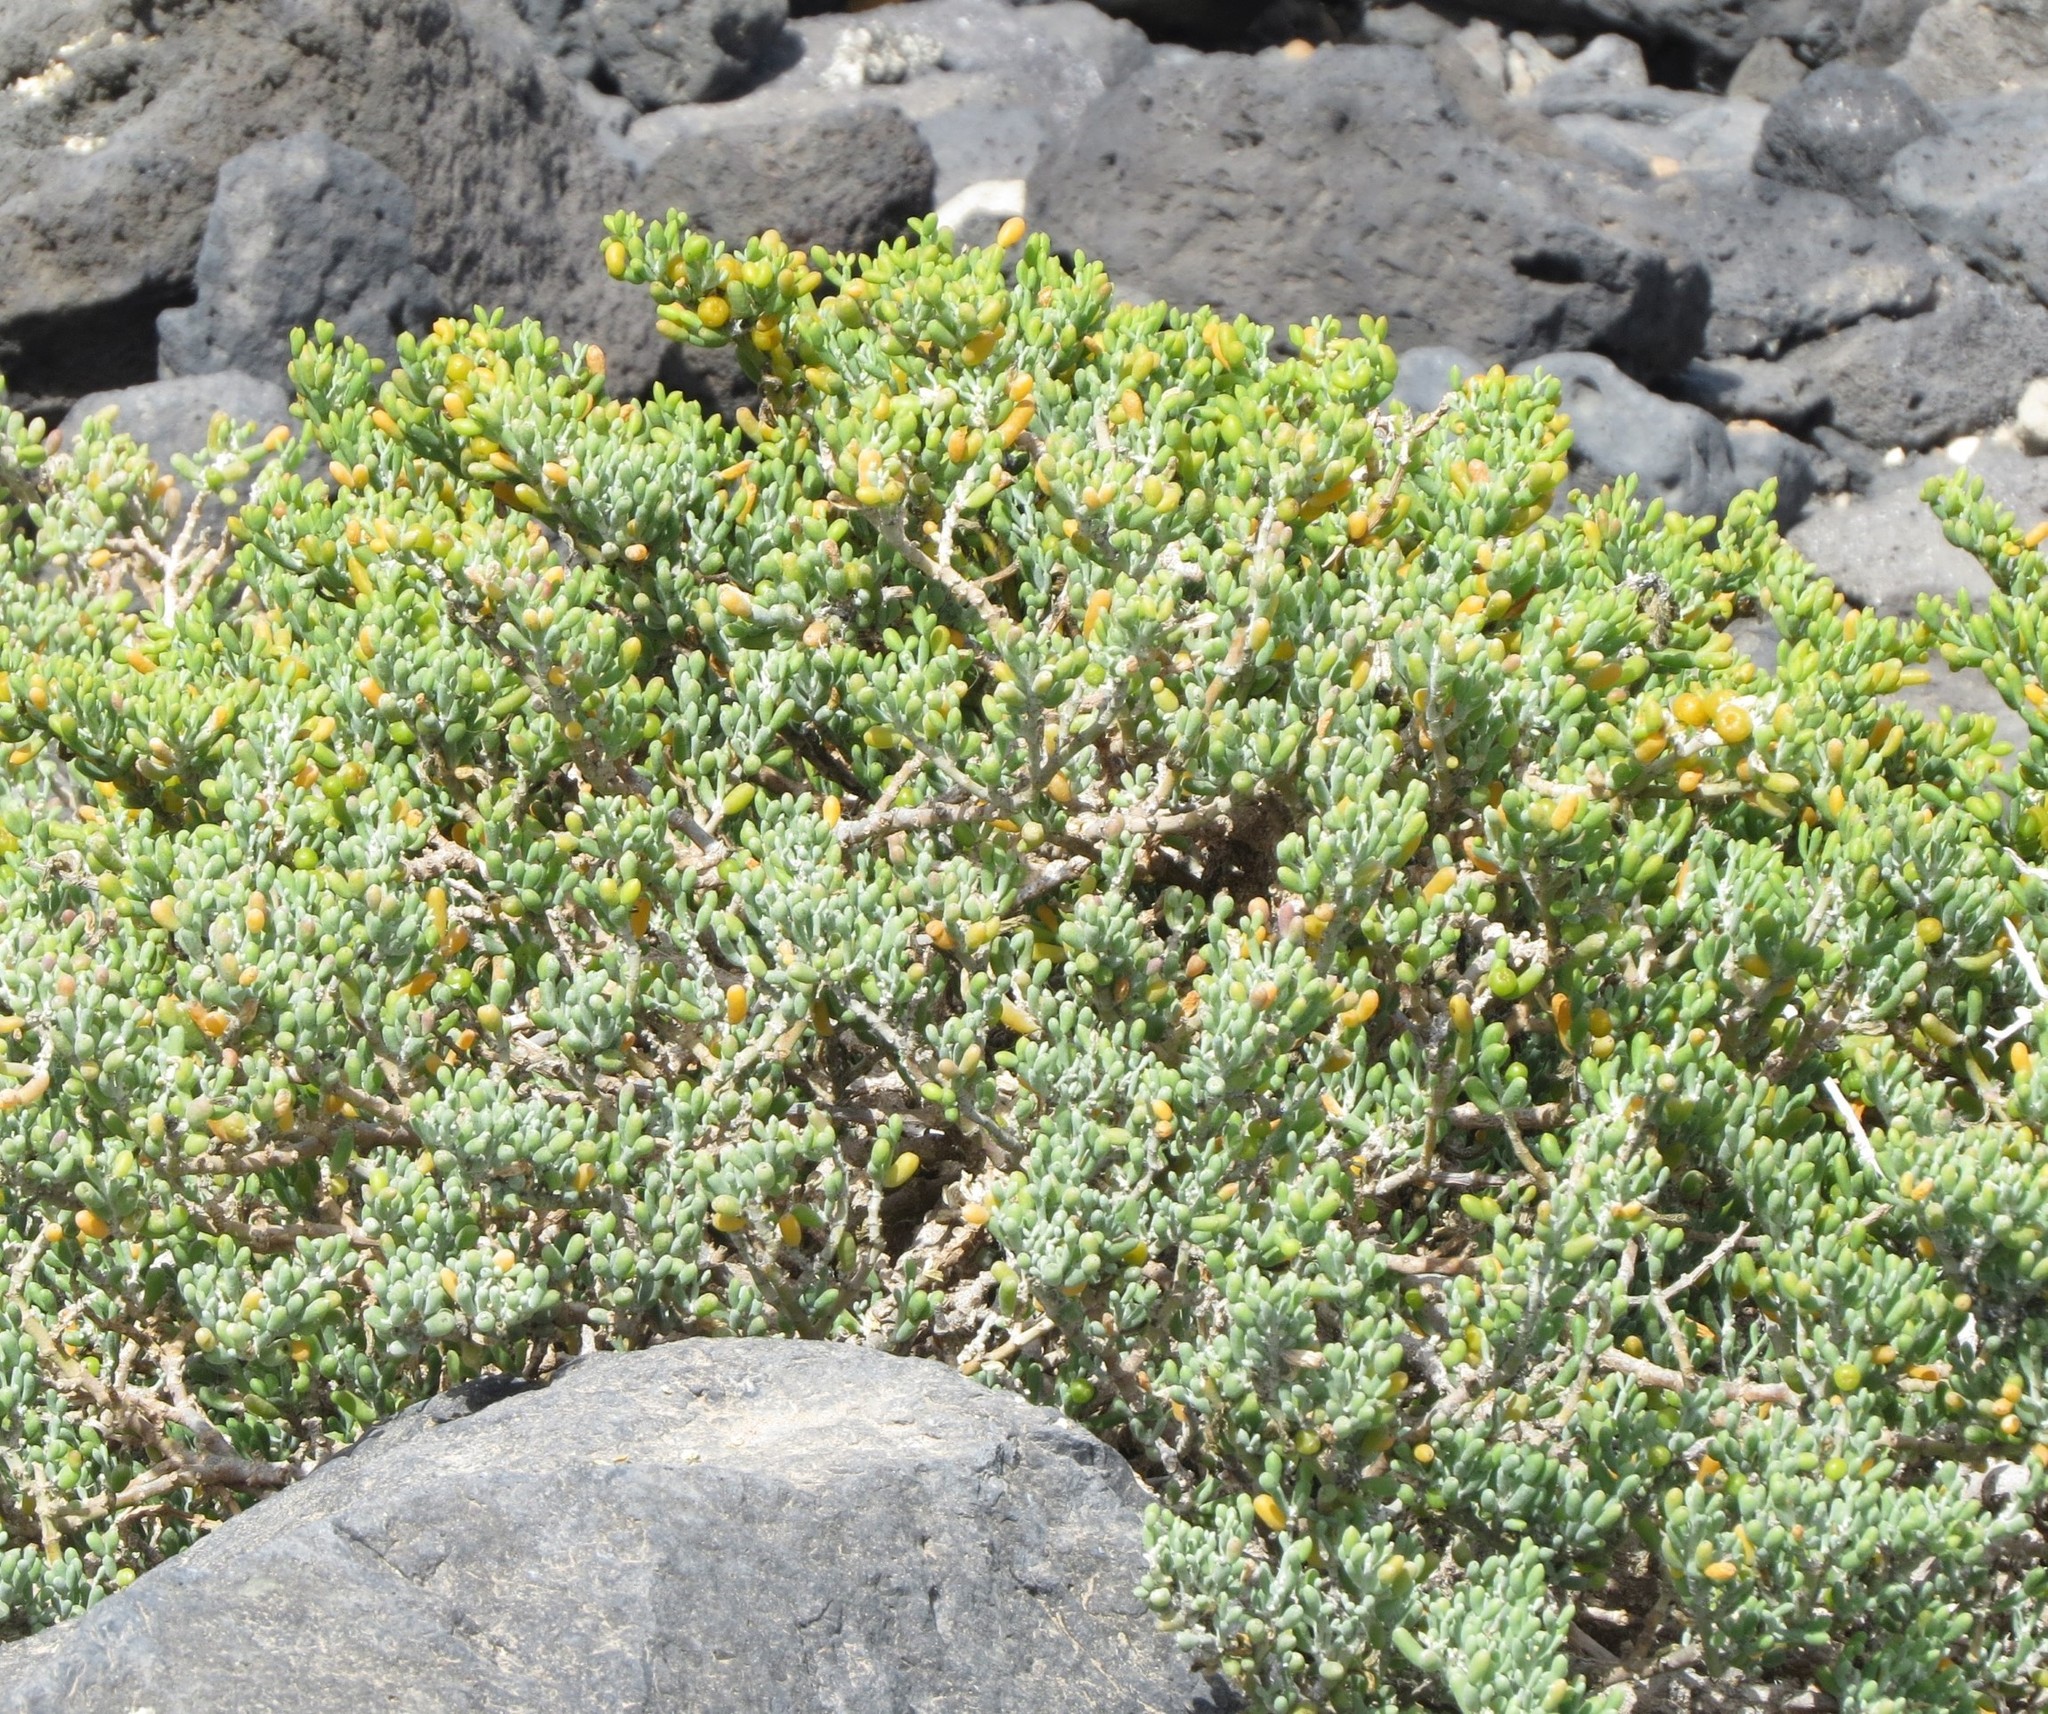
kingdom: Plantae
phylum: Tracheophyta
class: Magnoliopsida
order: Zygophyllales
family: Zygophyllaceae
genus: Tetraena
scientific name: Tetraena fontanesii
